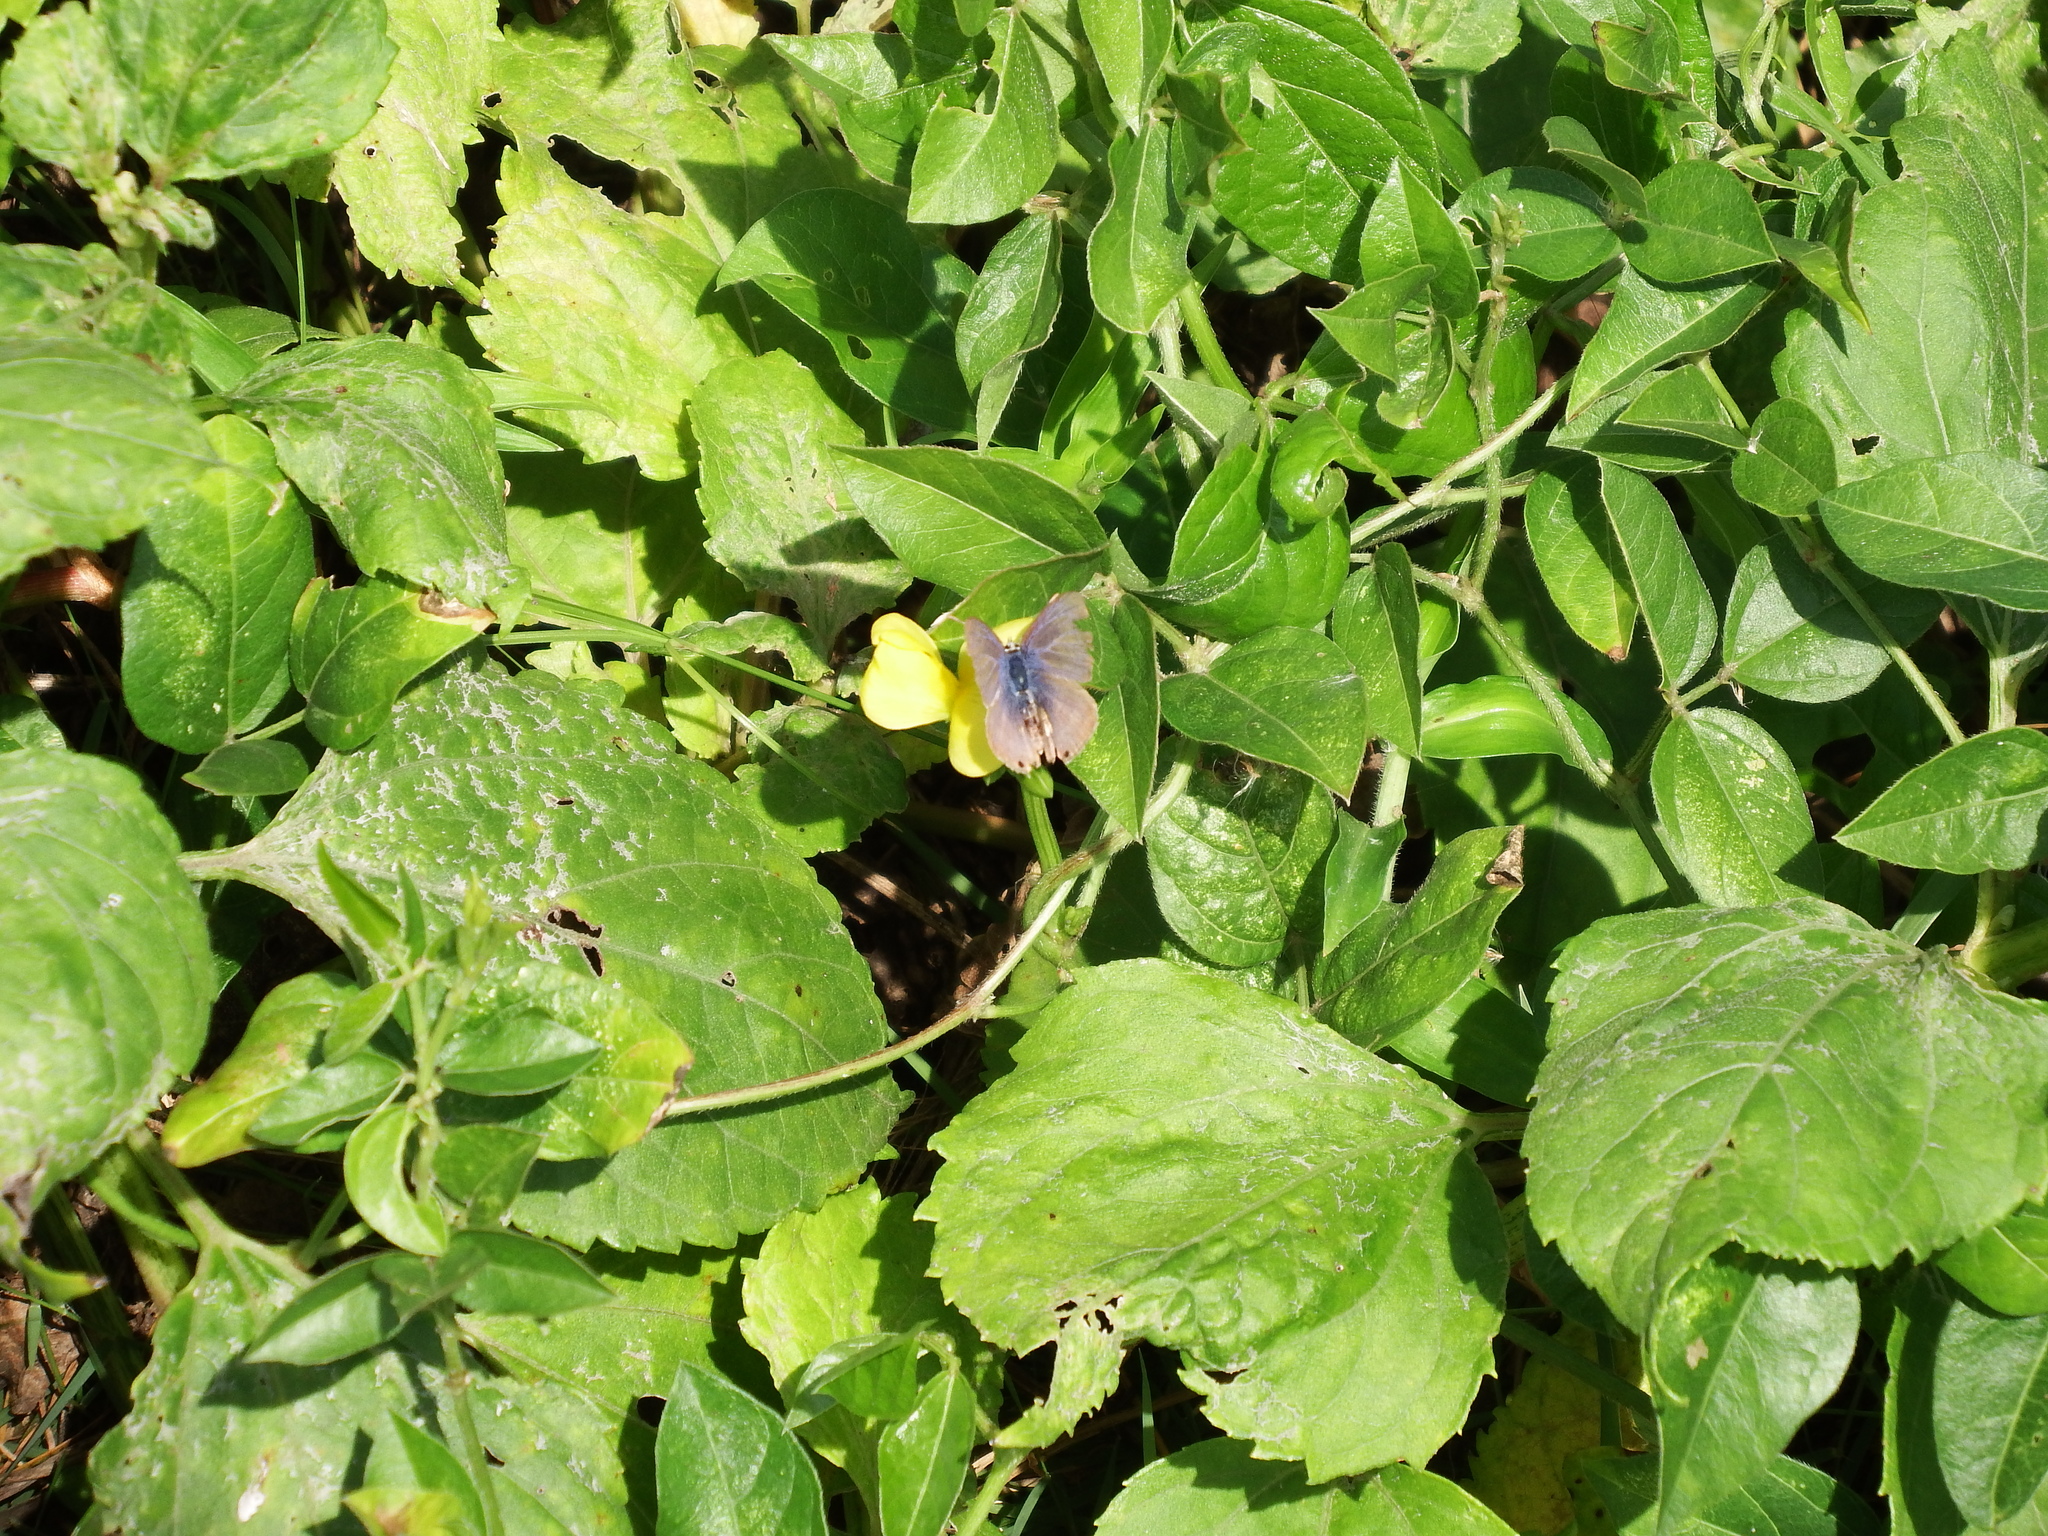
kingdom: Animalia
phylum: Arthropoda
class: Insecta
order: Lepidoptera
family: Lycaenidae
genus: Lampides
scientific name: Lampides boeticus
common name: Long-tailed blue
